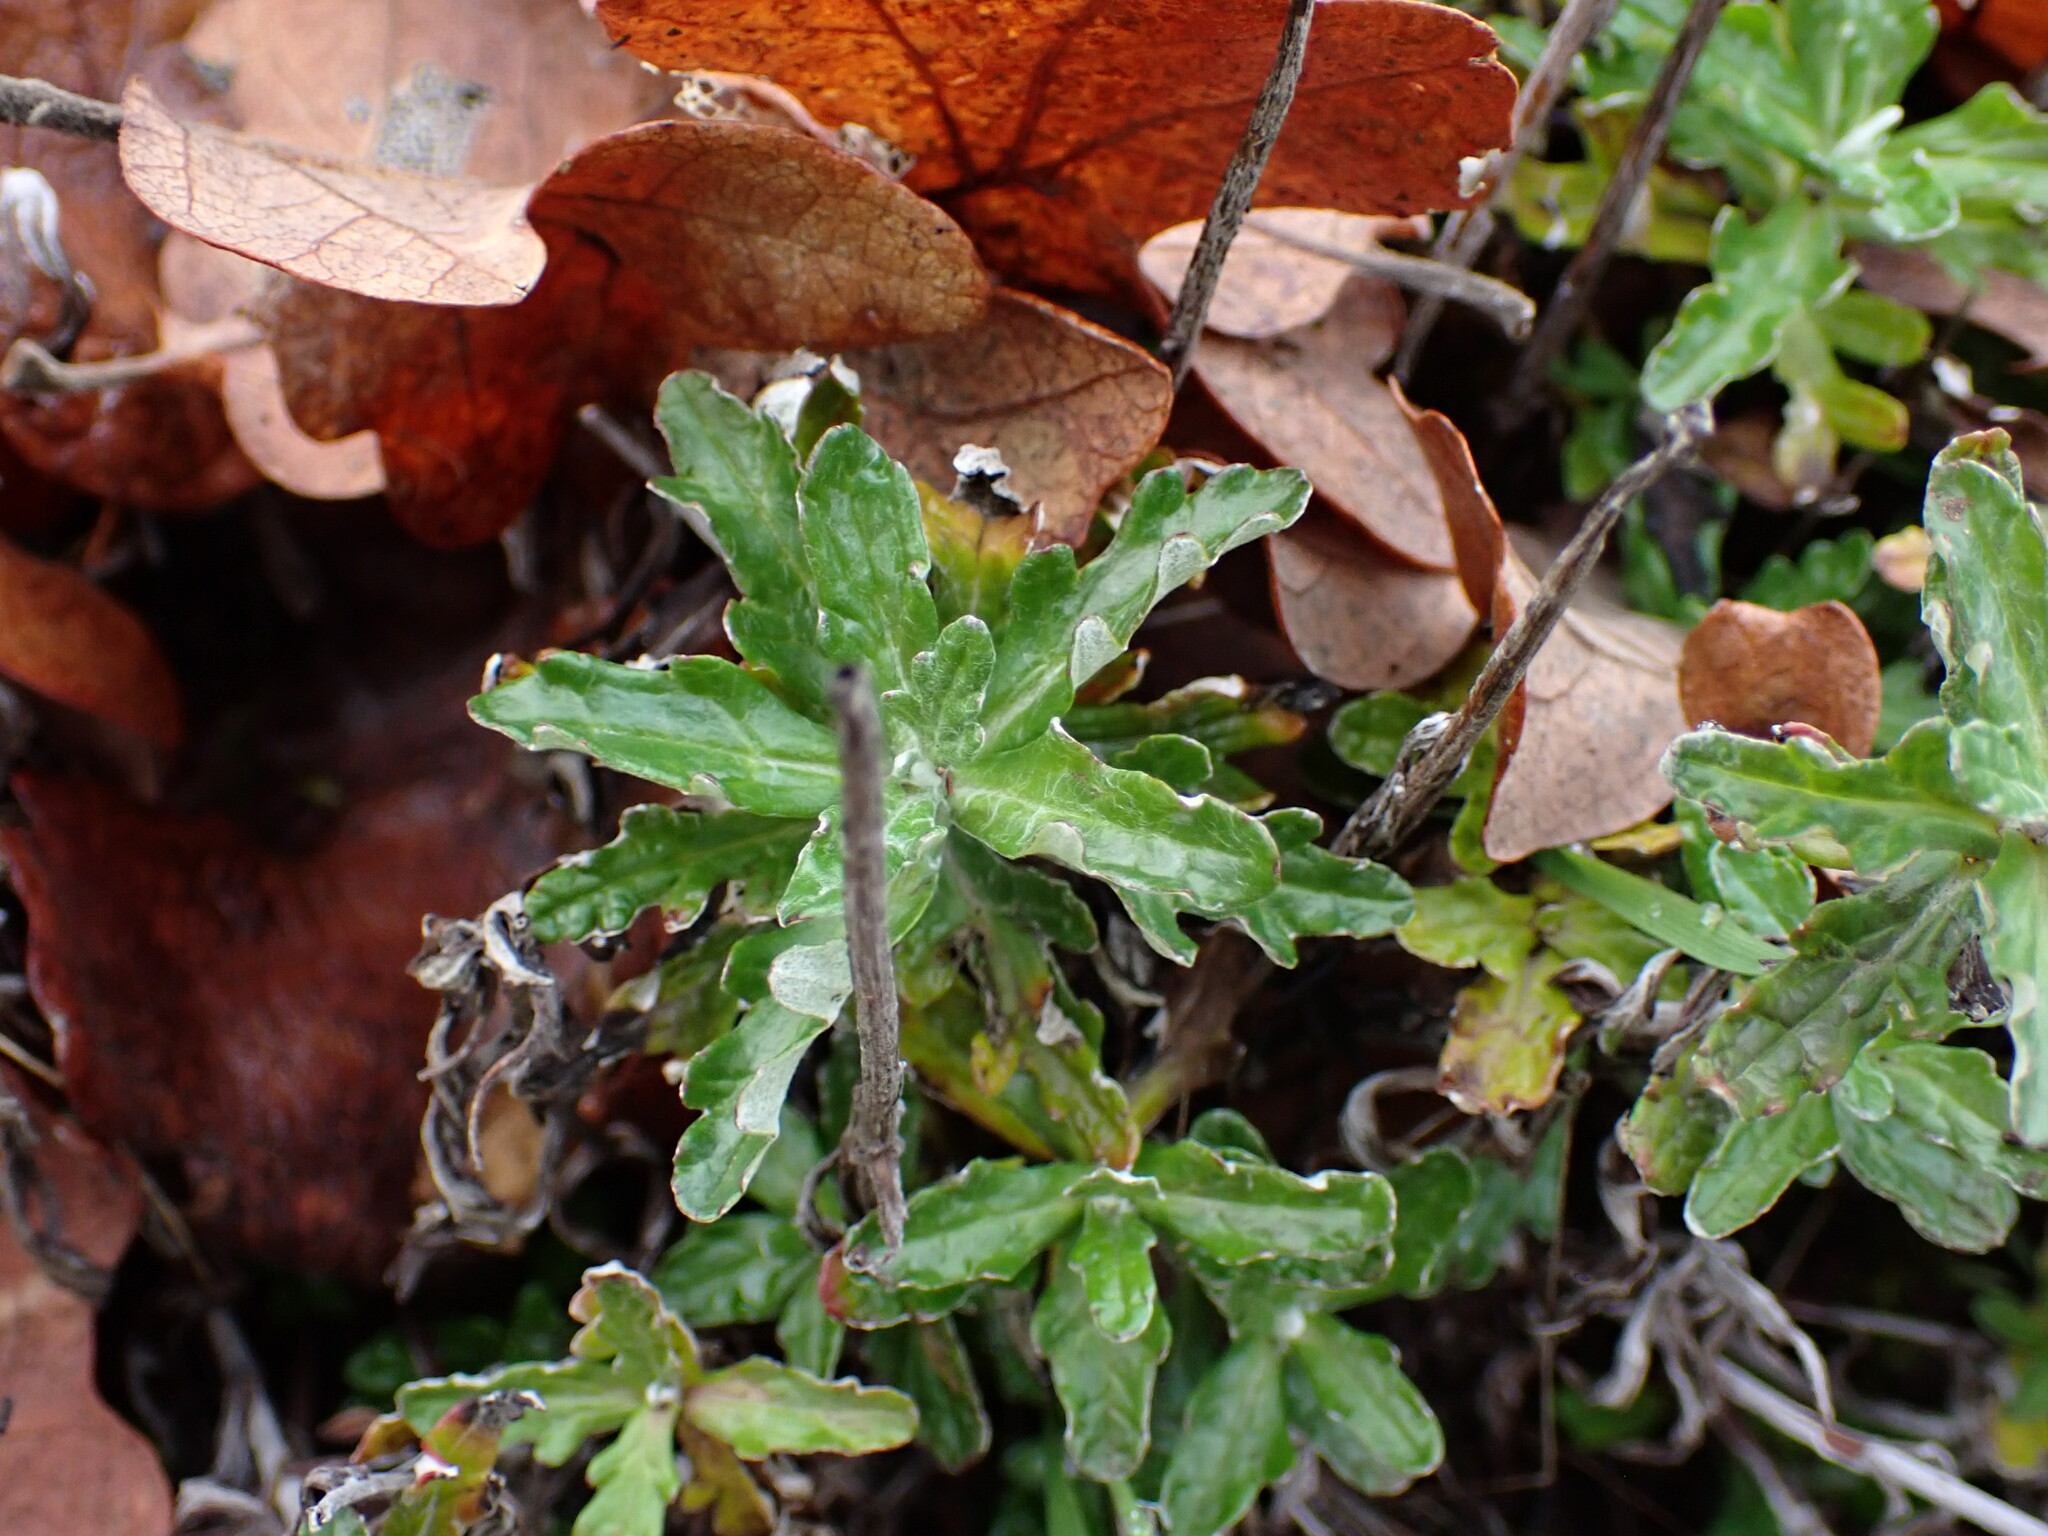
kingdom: Plantae
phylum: Tracheophyta
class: Magnoliopsida
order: Asterales
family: Asteraceae
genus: Eriophyllum
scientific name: Eriophyllum lanatum
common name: Common woolly-sunflower
